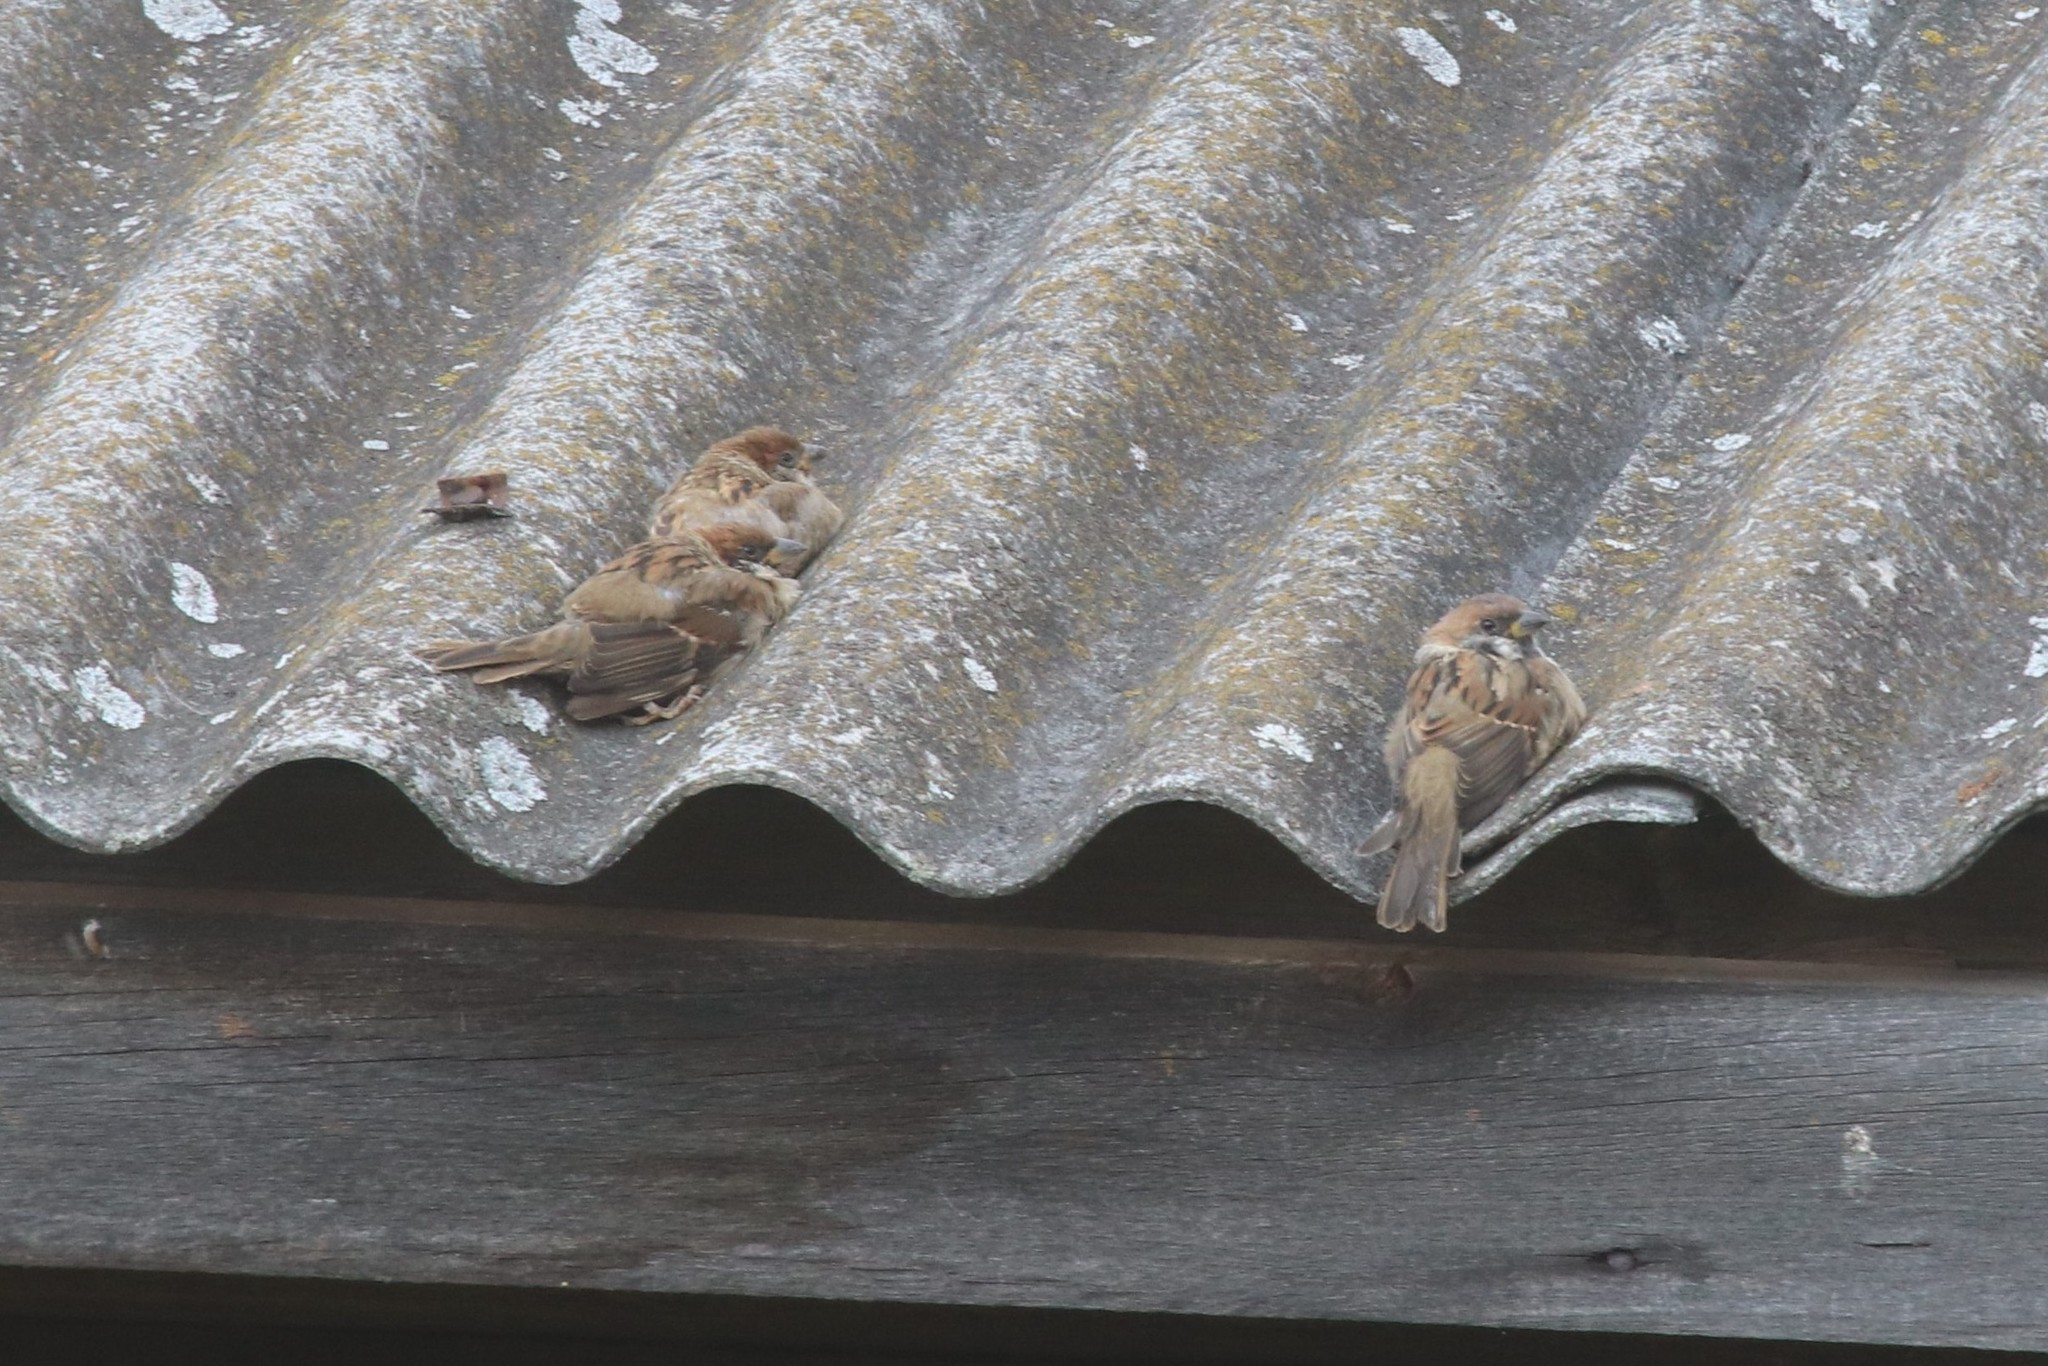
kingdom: Animalia
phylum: Chordata
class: Aves
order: Passeriformes
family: Passeridae
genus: Passer
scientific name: Passer montanus
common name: Eurasian tree sparrow
